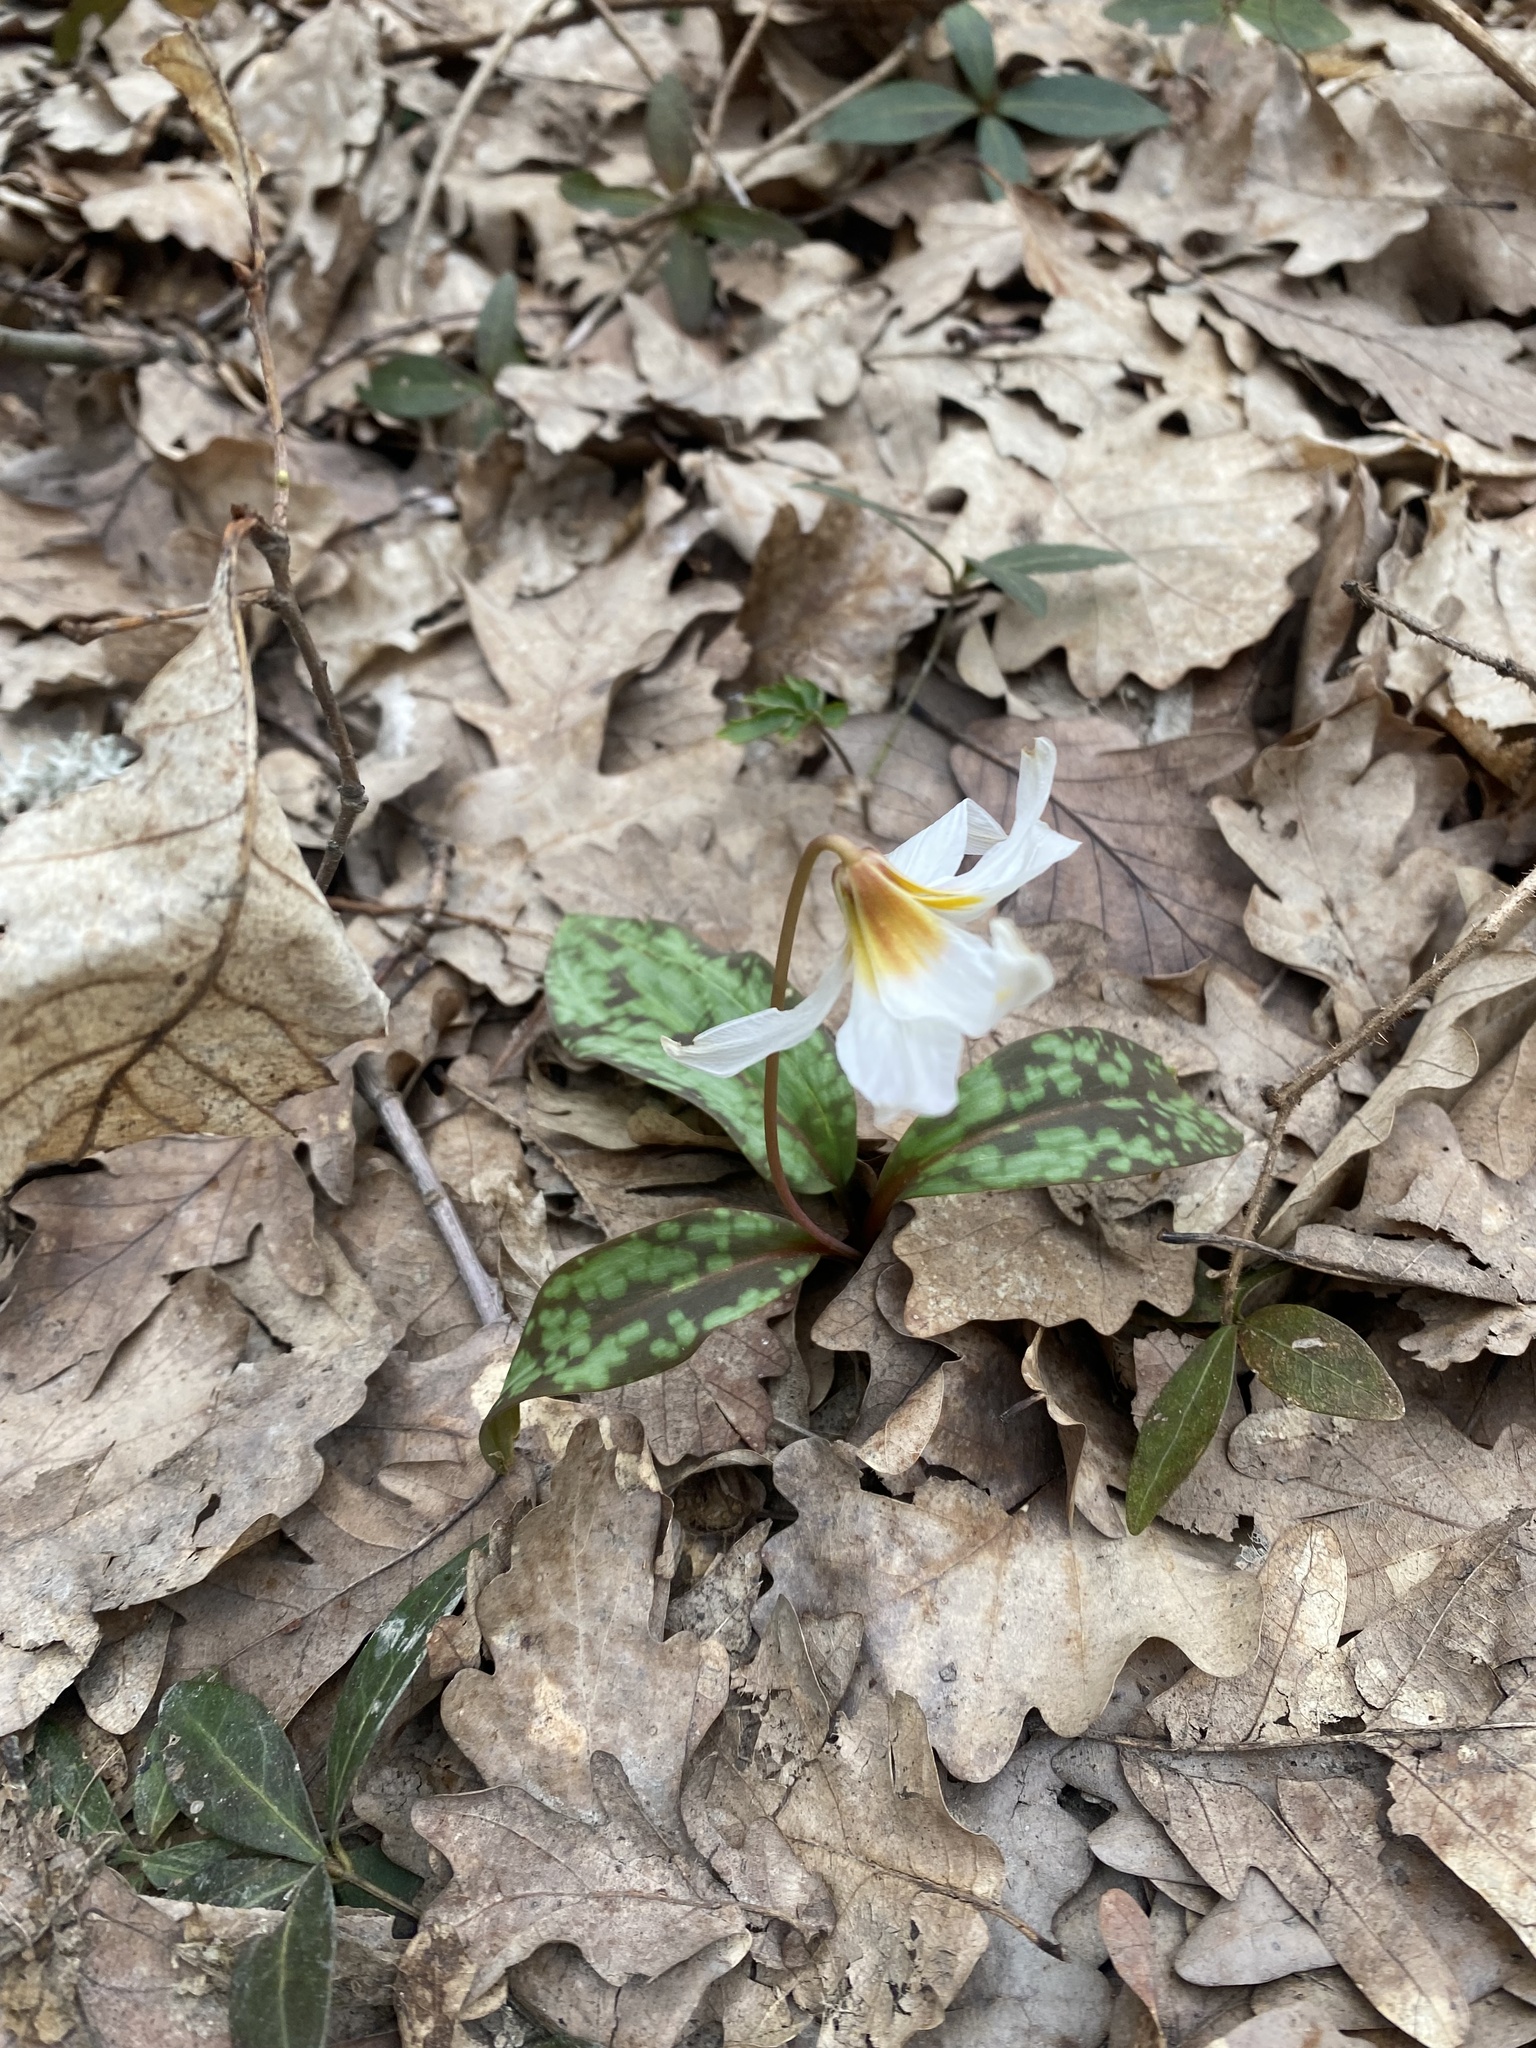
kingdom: Plantae
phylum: Tracheophyta
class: Liliopsida
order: Liliales
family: Liliaceae
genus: Erythronium
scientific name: Erythronium caucasicum
